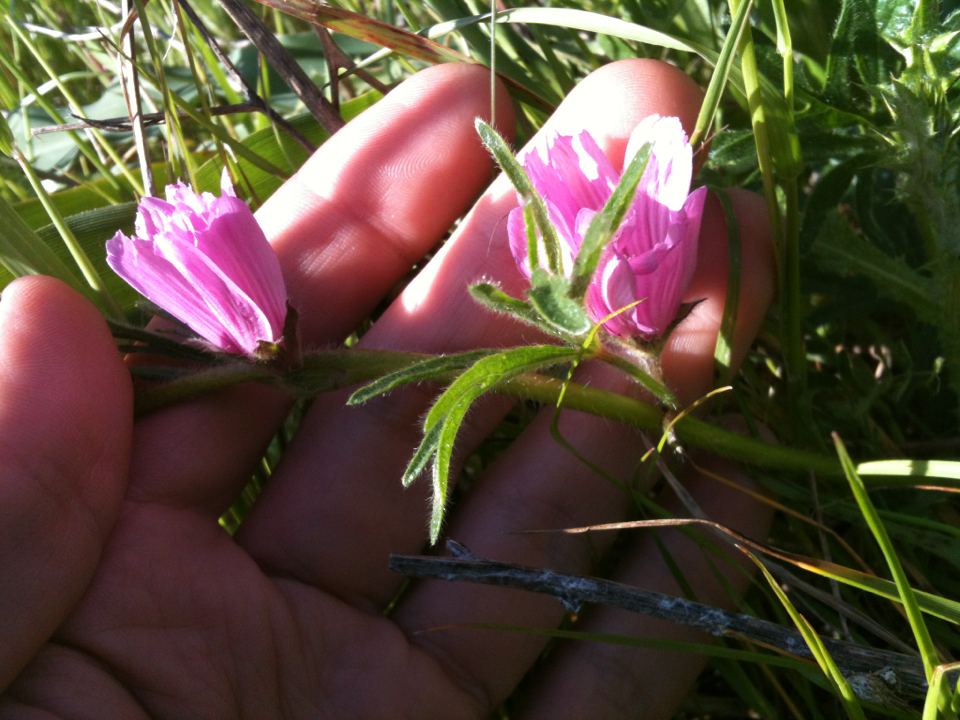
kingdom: Plantae
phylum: Tracheophyta
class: Magnoliopsida
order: Malvales
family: Malvaceae
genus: Sidalcea
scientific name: Sidalcea malviflora
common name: Greek mallow
